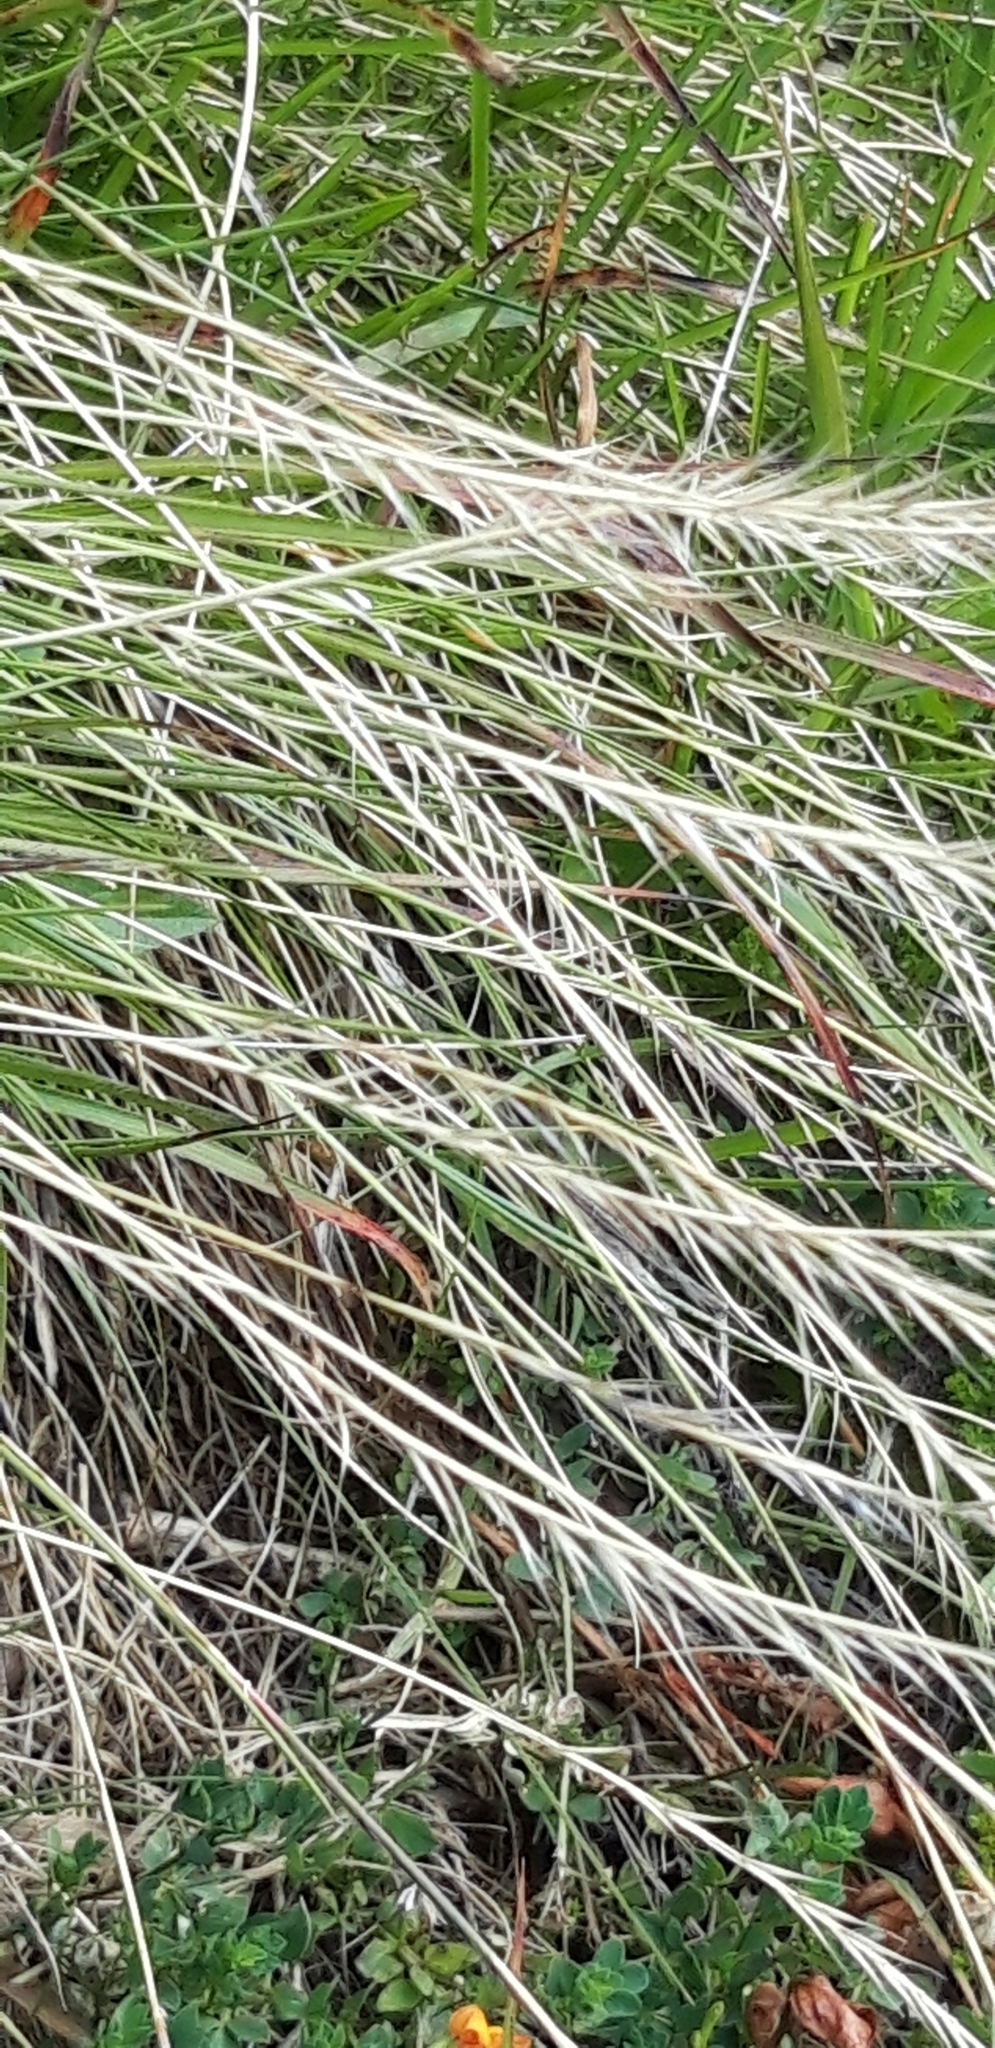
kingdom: Plantae
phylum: Tracheophyta
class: Liliopsida
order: Poales
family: Poaceae
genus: Nardus
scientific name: Nardus stricta
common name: Mat-grass
